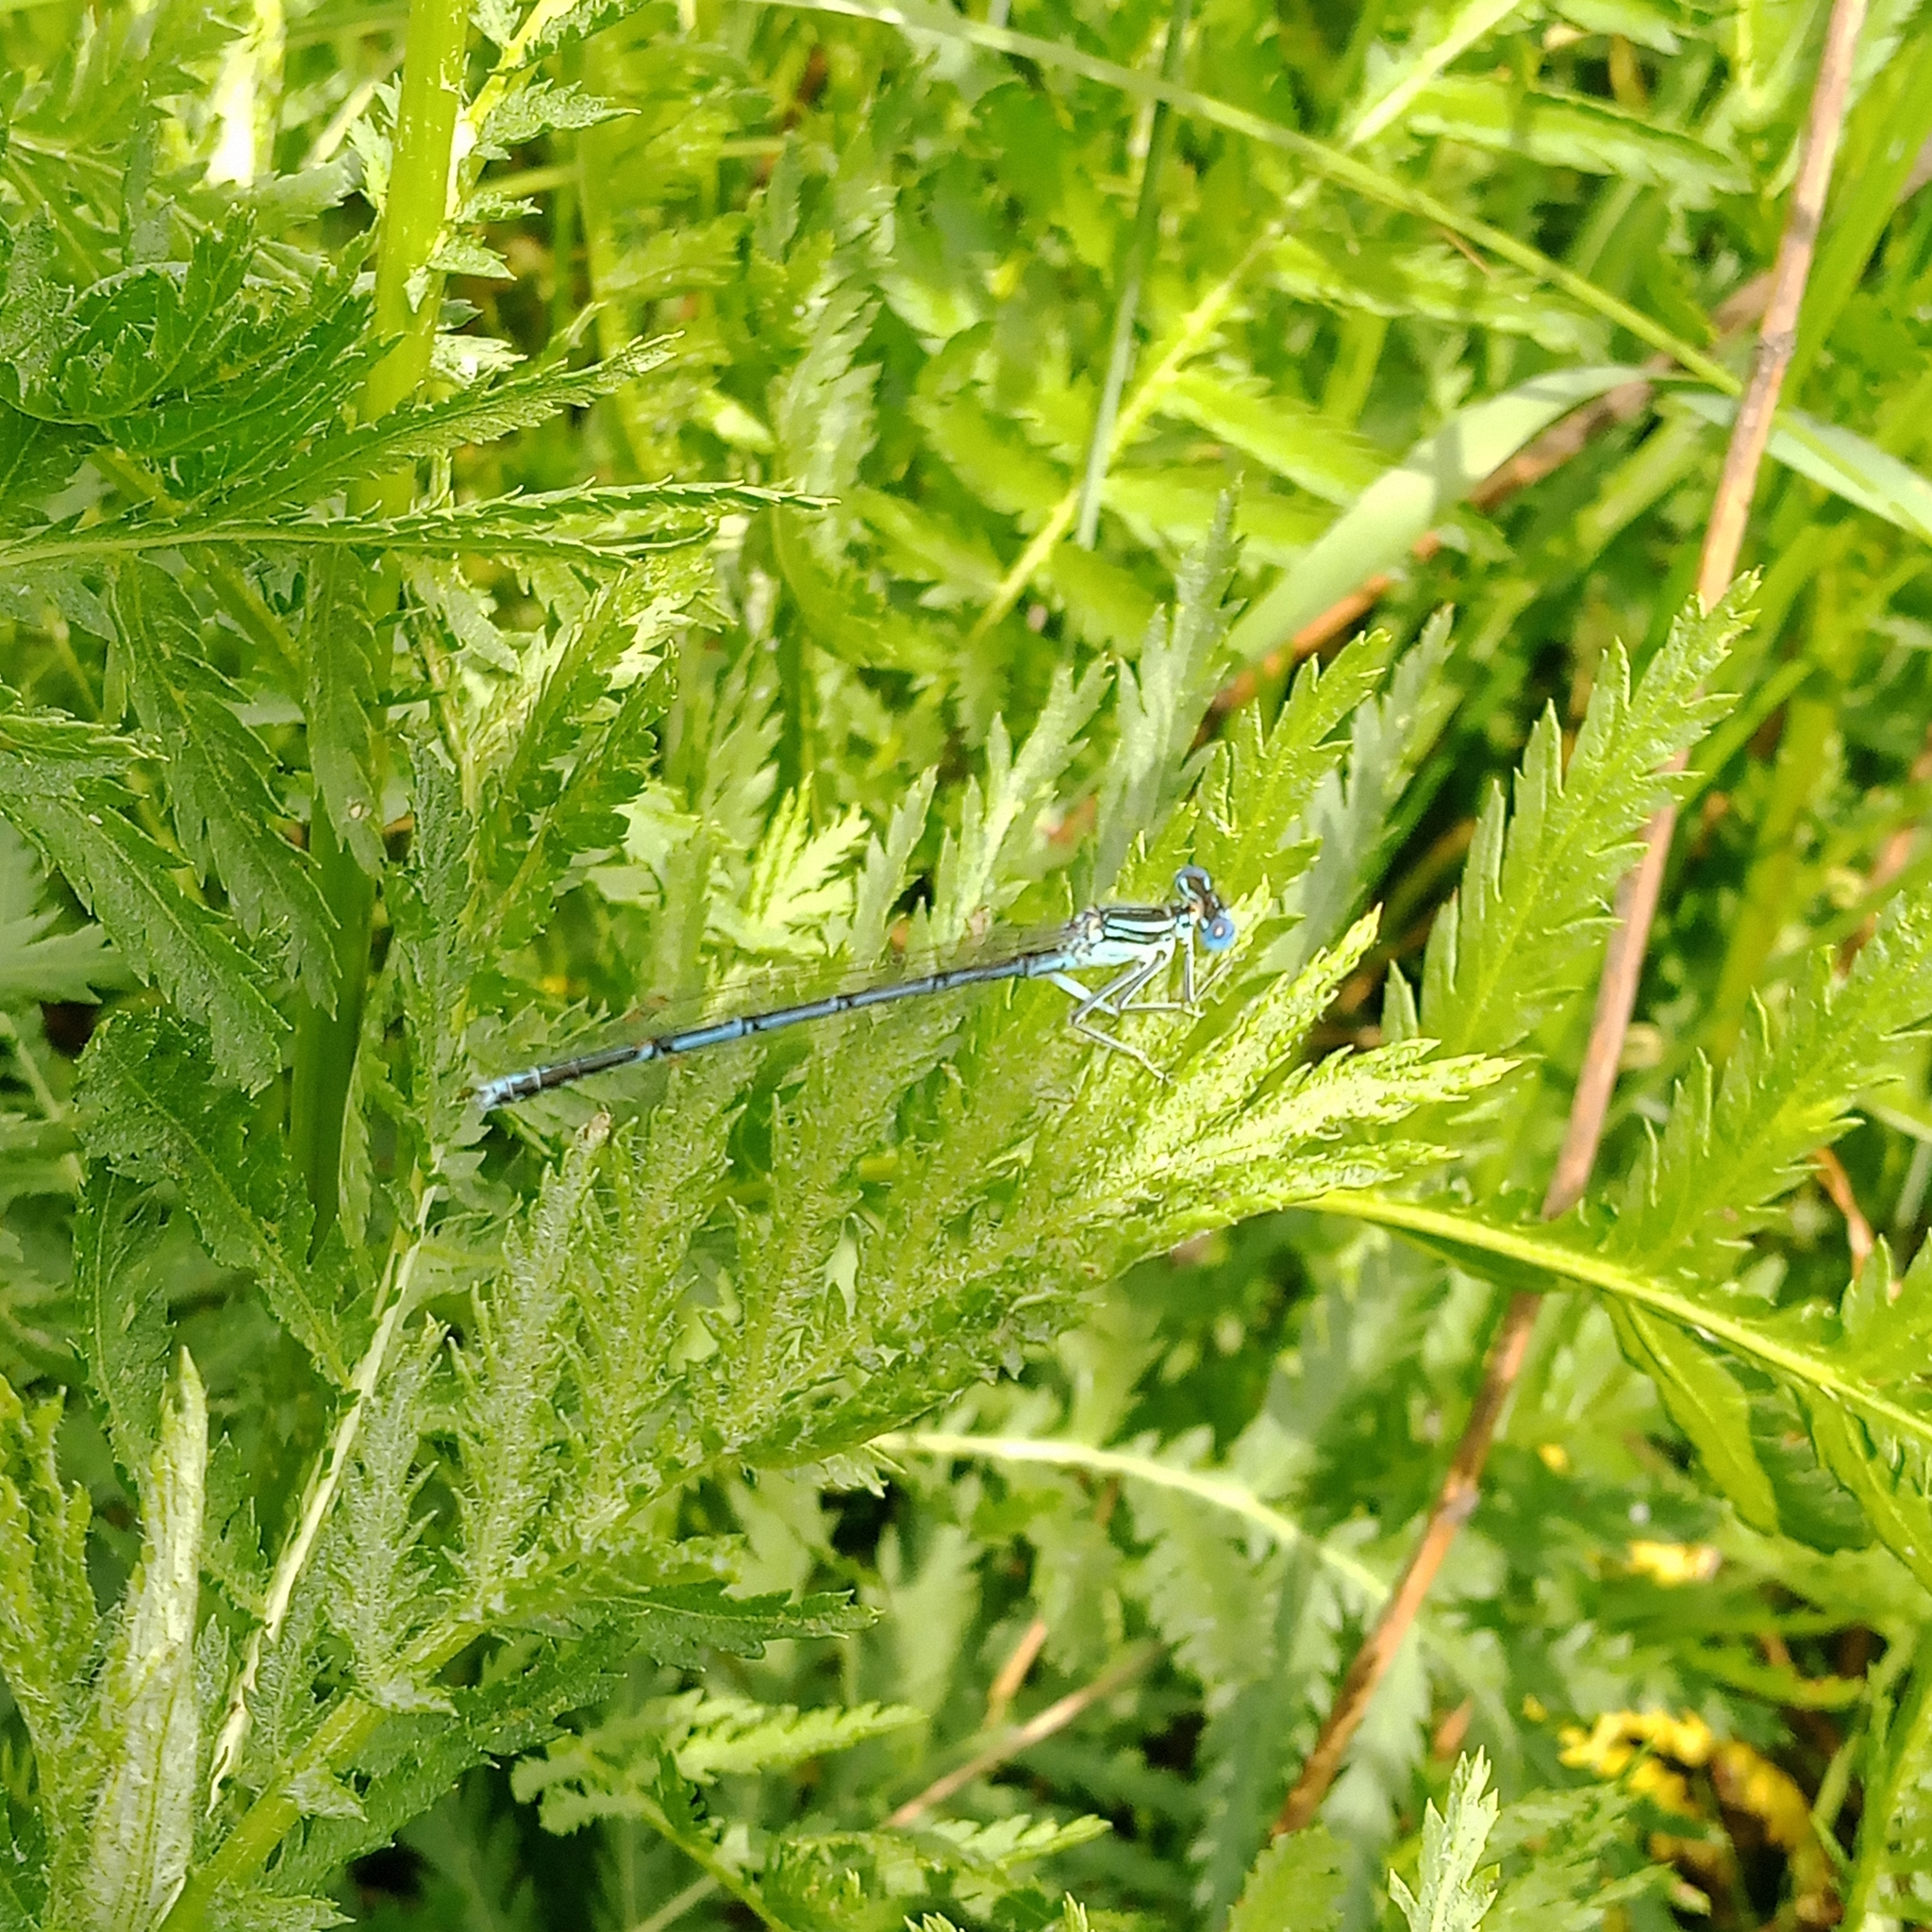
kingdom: Animalia
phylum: Arthropoda
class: Insecta
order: Odonata
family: Platycnemididae
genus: Platycnemis
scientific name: Platycnemis pennipes
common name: White-legged damselfly
